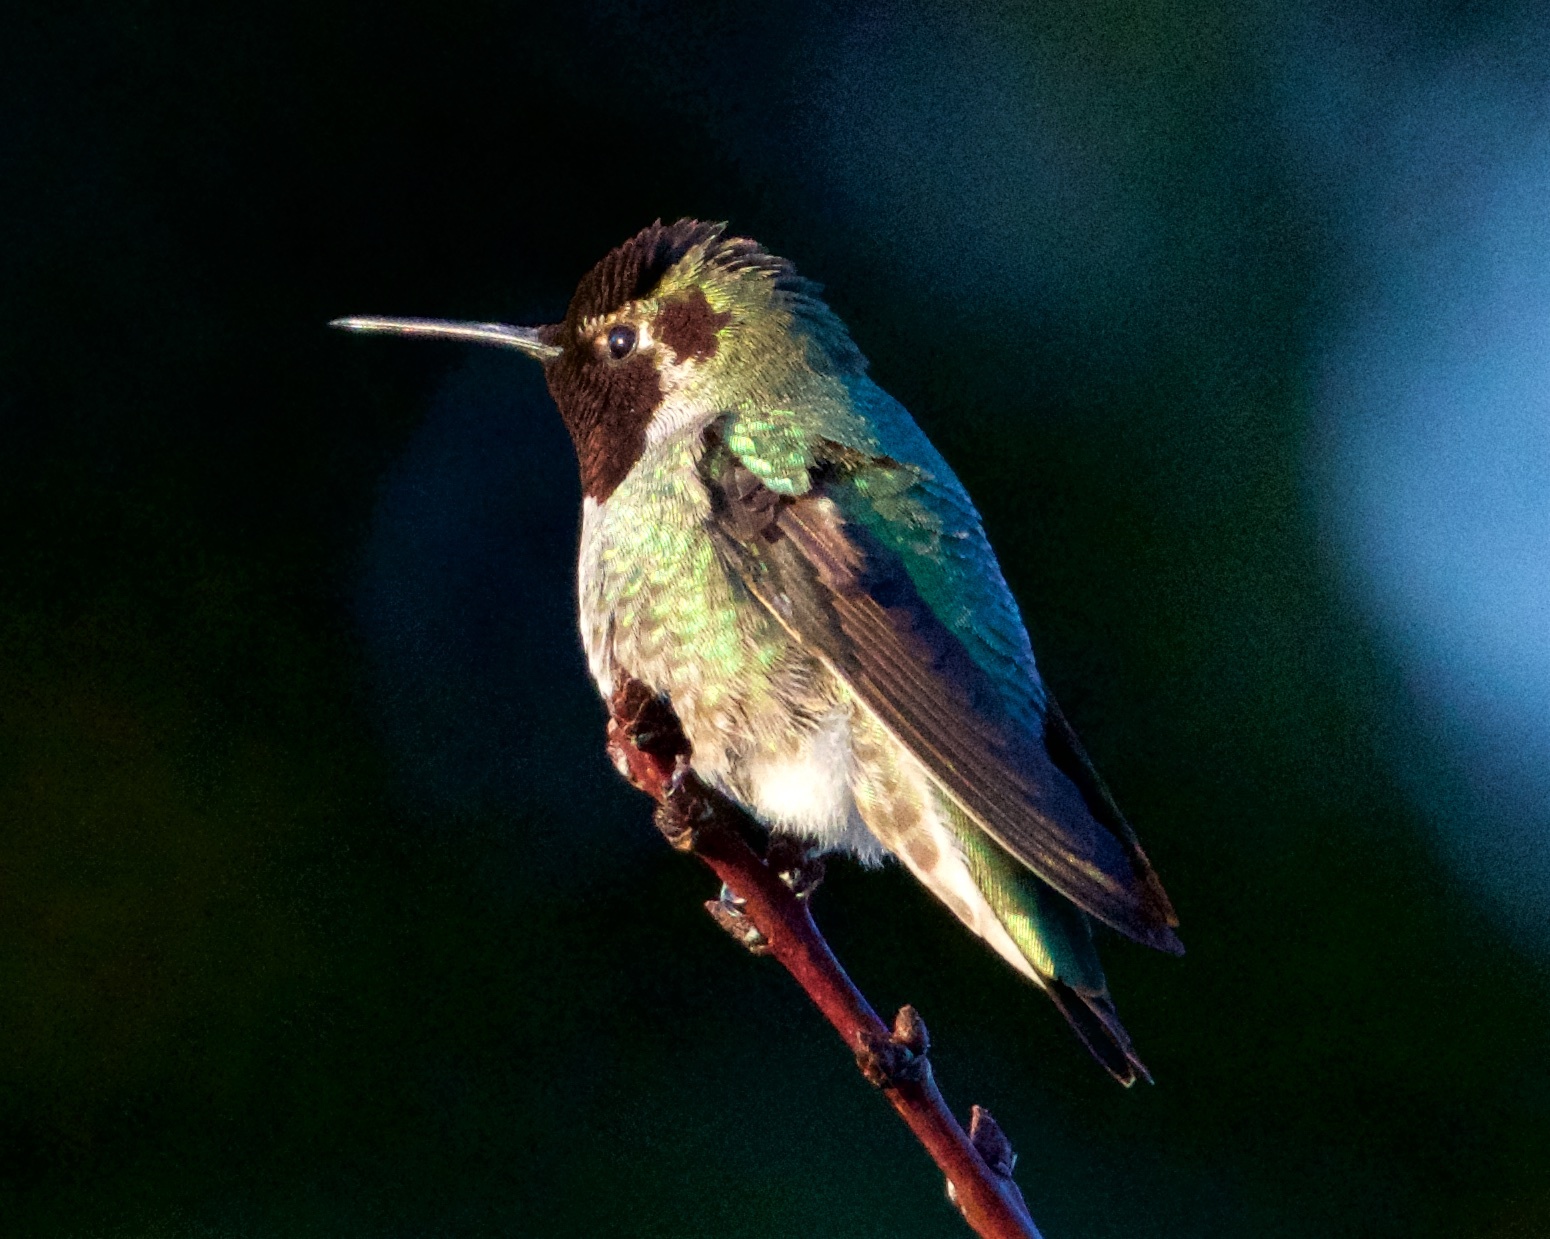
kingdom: Animalia
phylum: Chordata
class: Aves
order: Apodiformes
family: Trochilidae
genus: Calypte
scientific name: Calypte anna
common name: Anna's hummingbird
